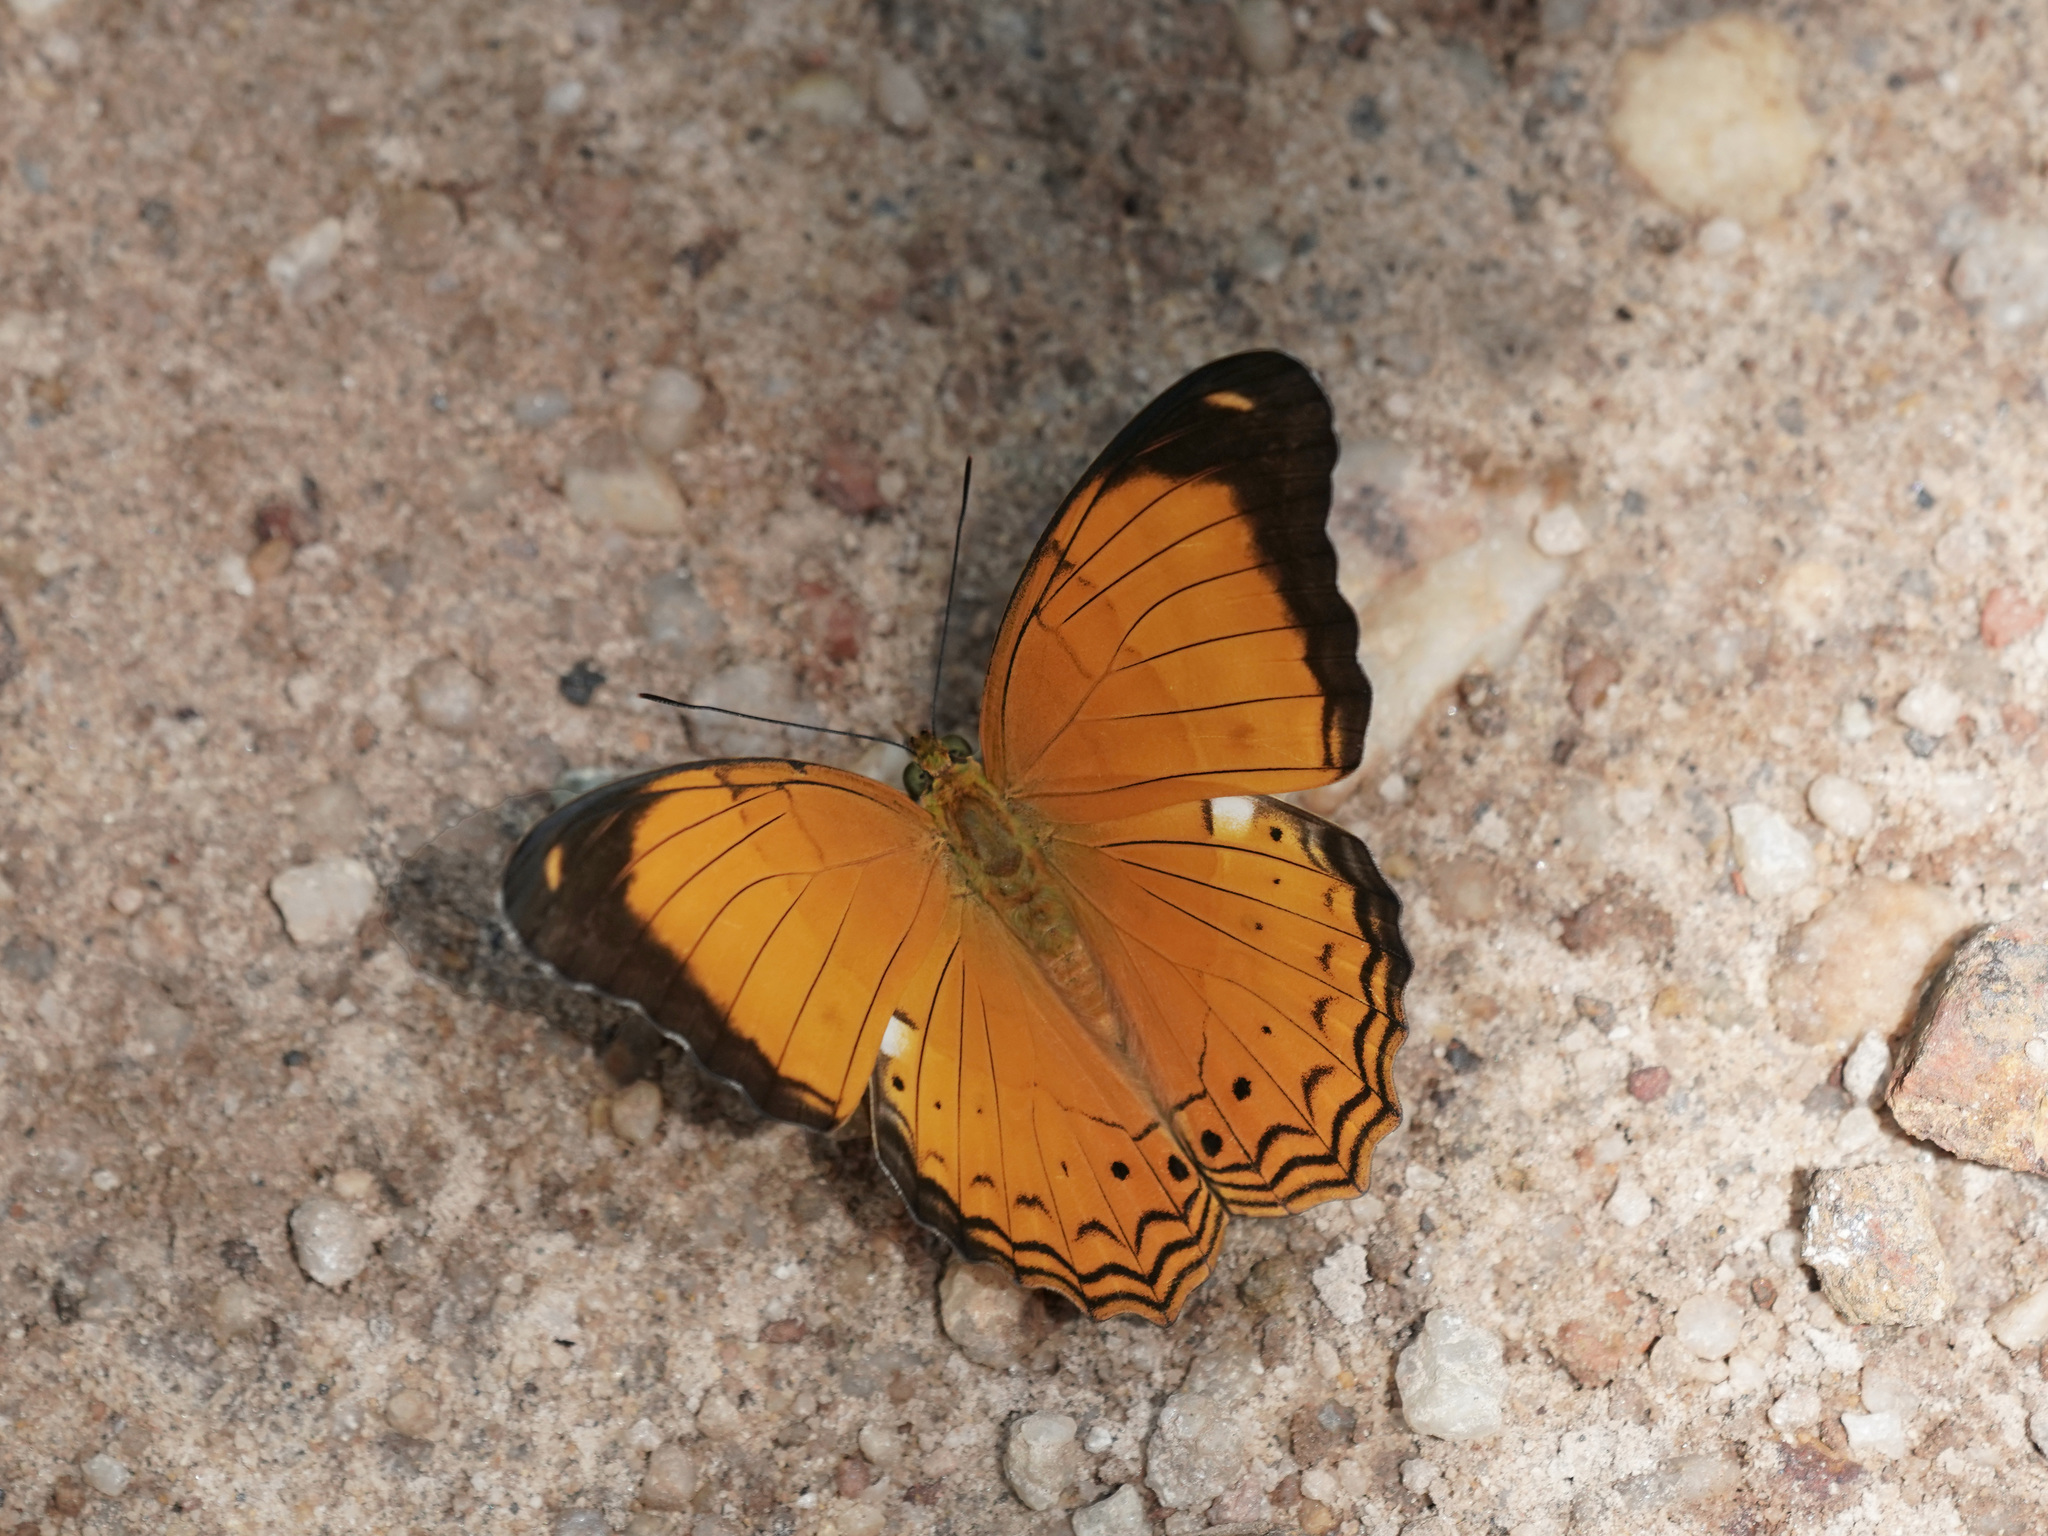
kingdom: Animalia
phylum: Arthropoda
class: Insecta
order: Lepidoptera
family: Nymphalidae
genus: Cirrochroa
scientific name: Cirrochroa emalea
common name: Malay yeoman
